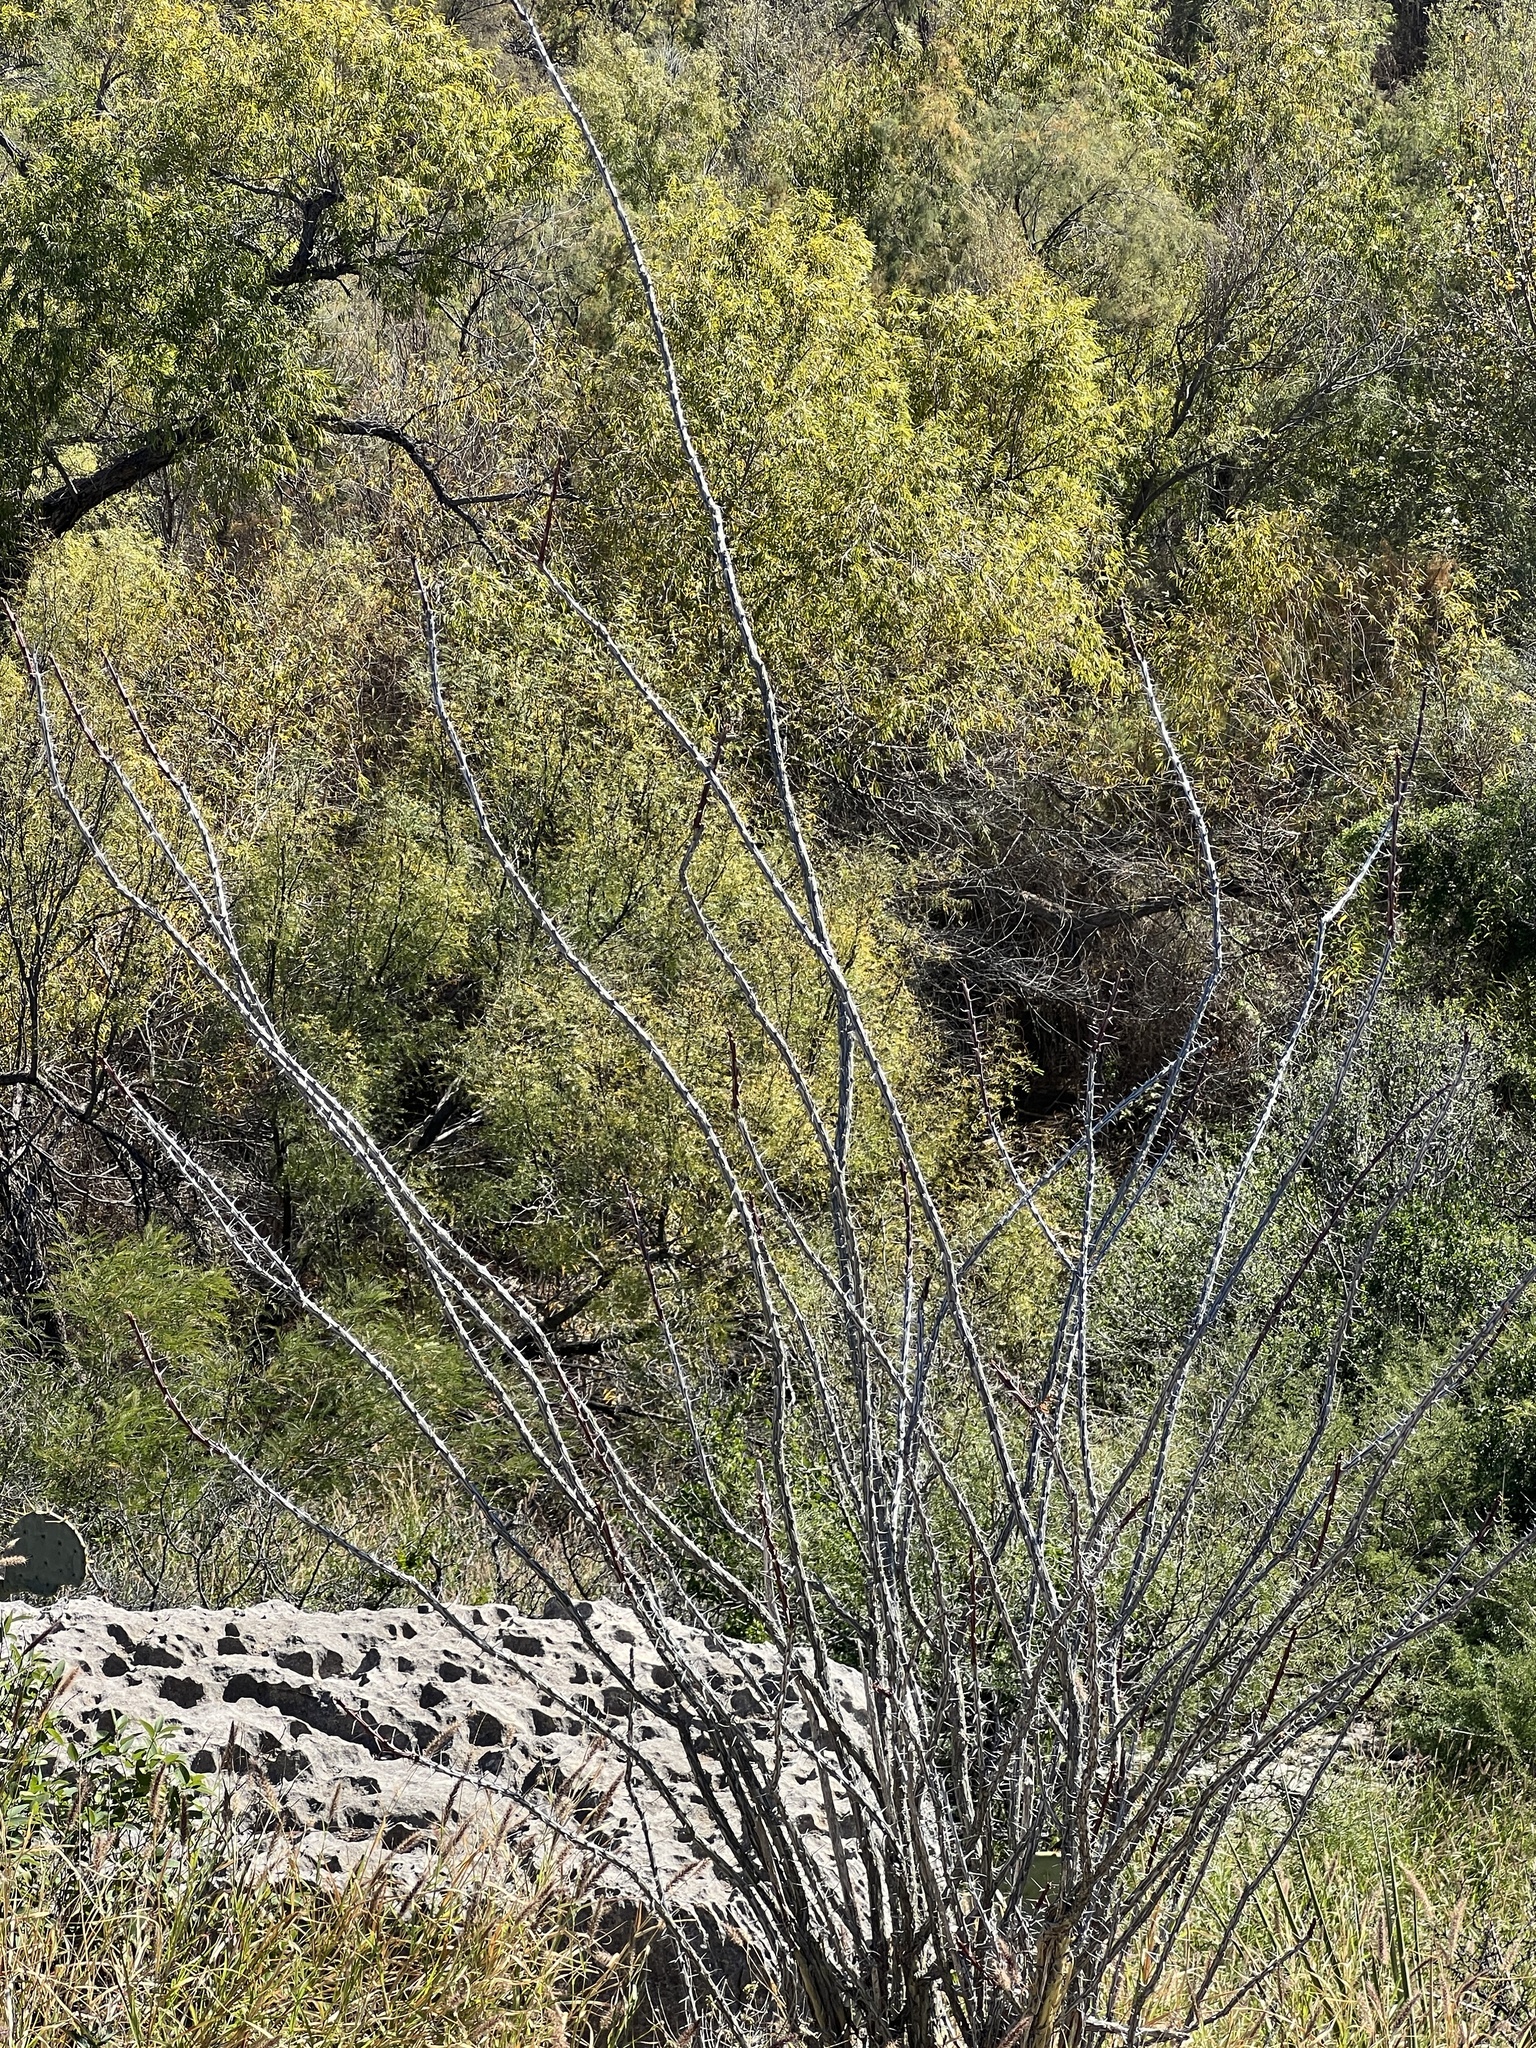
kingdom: Plantae
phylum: Tracheophyta
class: Magnoliopsida
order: Ericales
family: Fouquieriaceae
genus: Fouquieria
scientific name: Fouquieria splendens
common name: Vine-cactus
